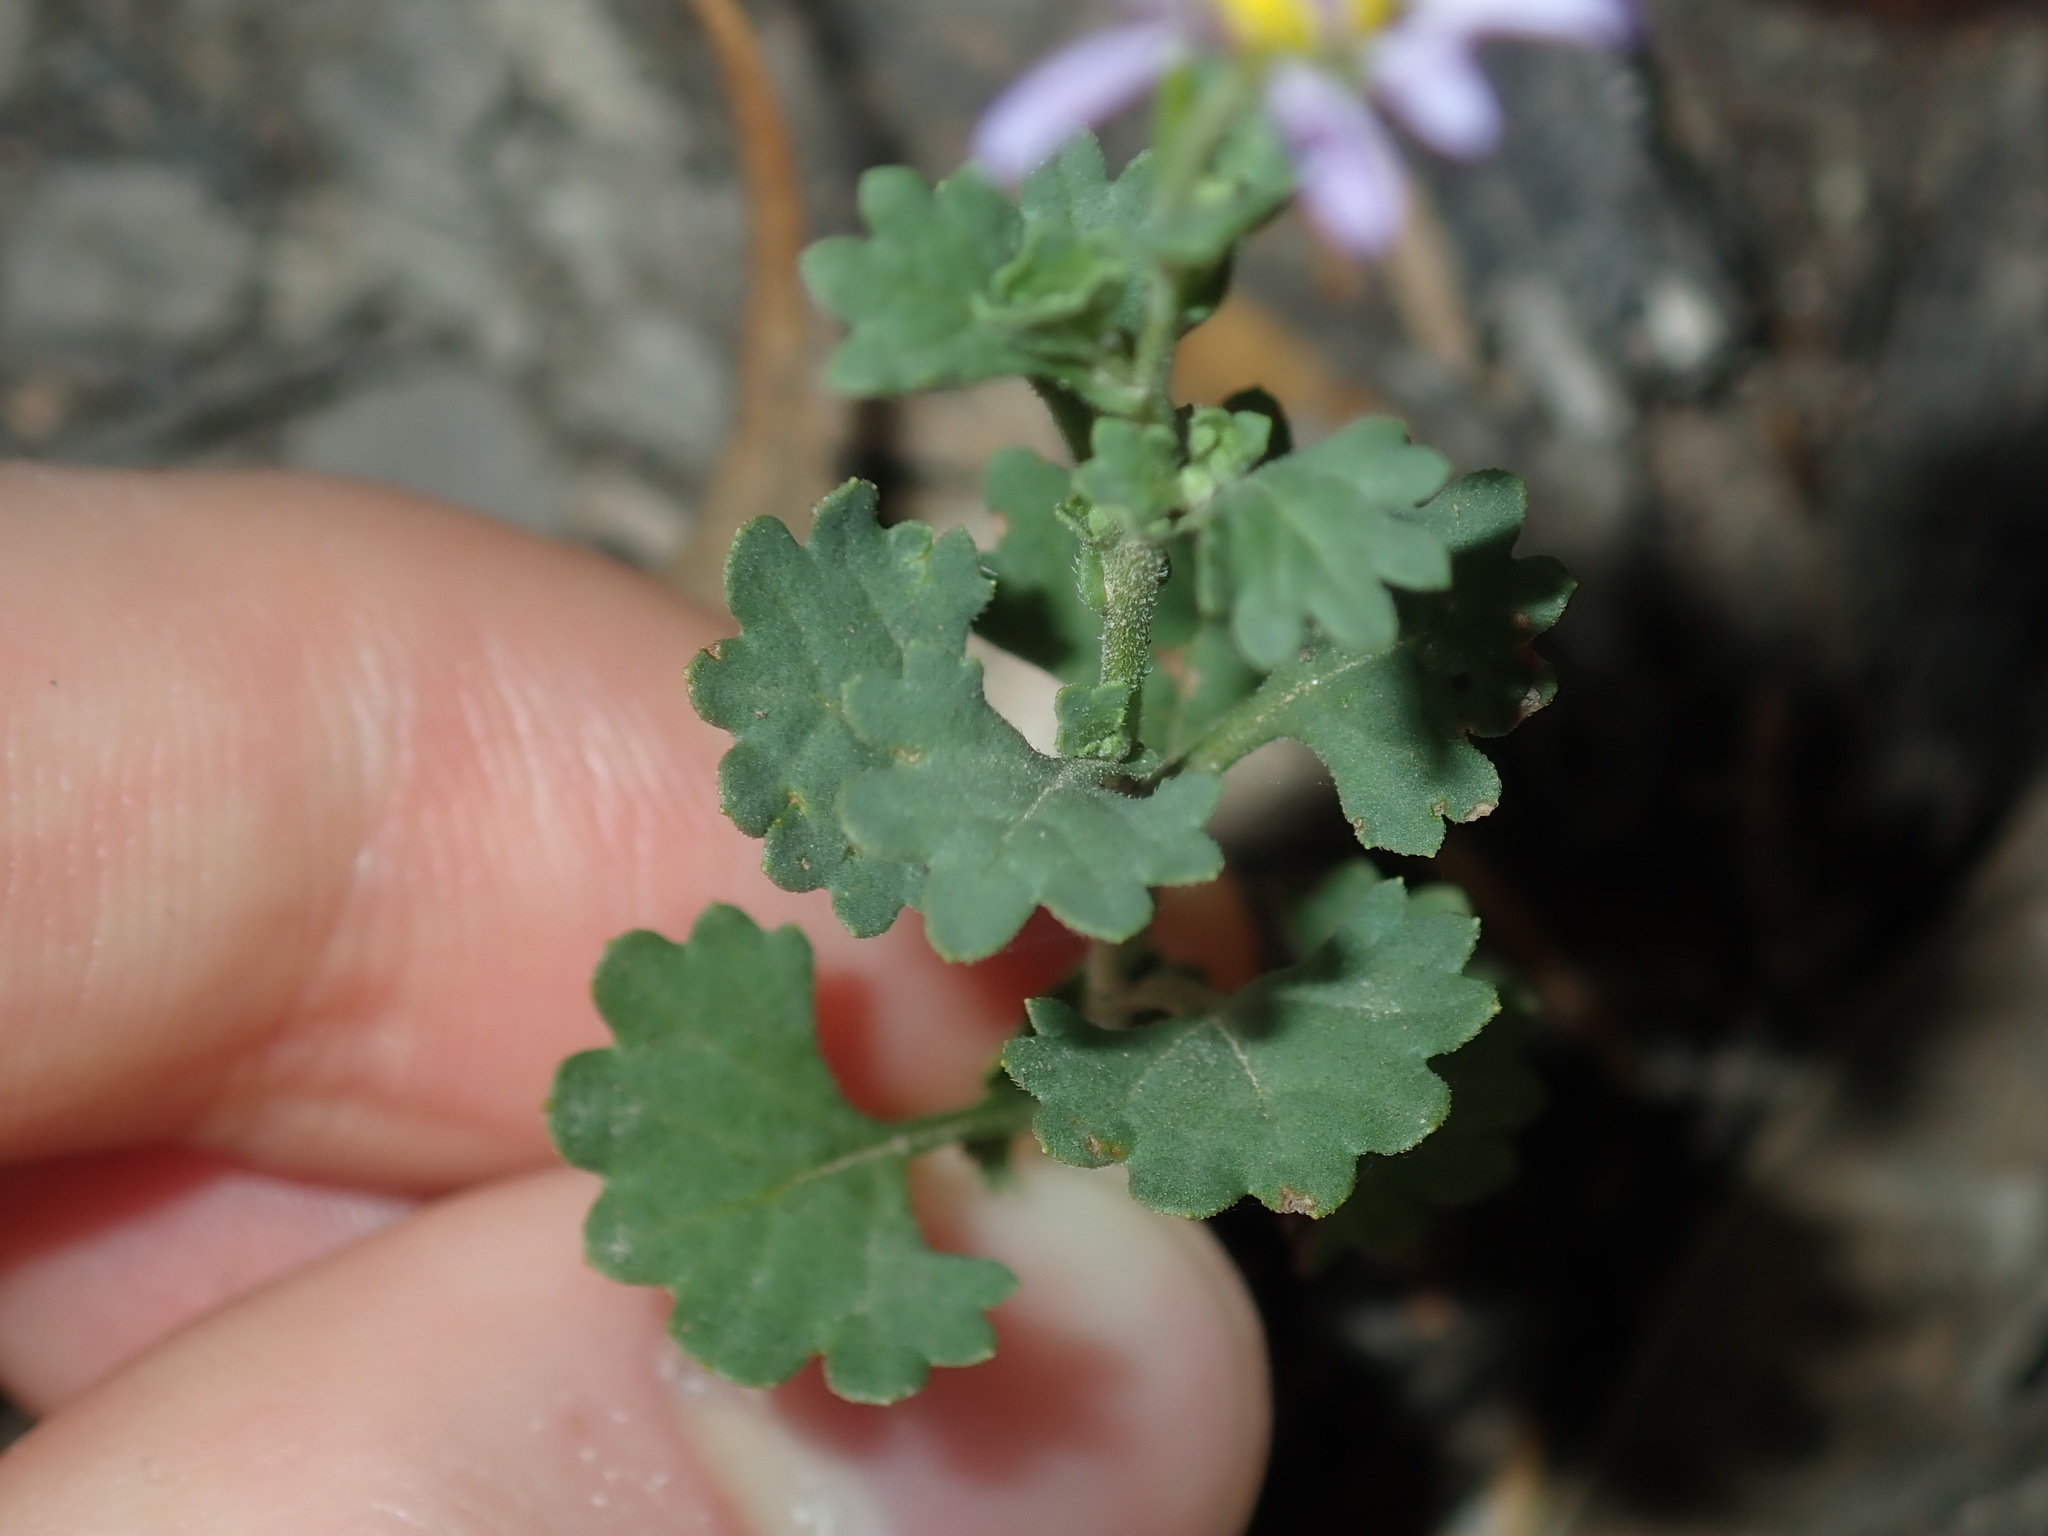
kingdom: Plantae
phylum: Tracheophyta
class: Magnoliopsida
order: Asterales
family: Asteraceae
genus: Calotis
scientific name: Calotis cuneifolia
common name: Bur-daisy
